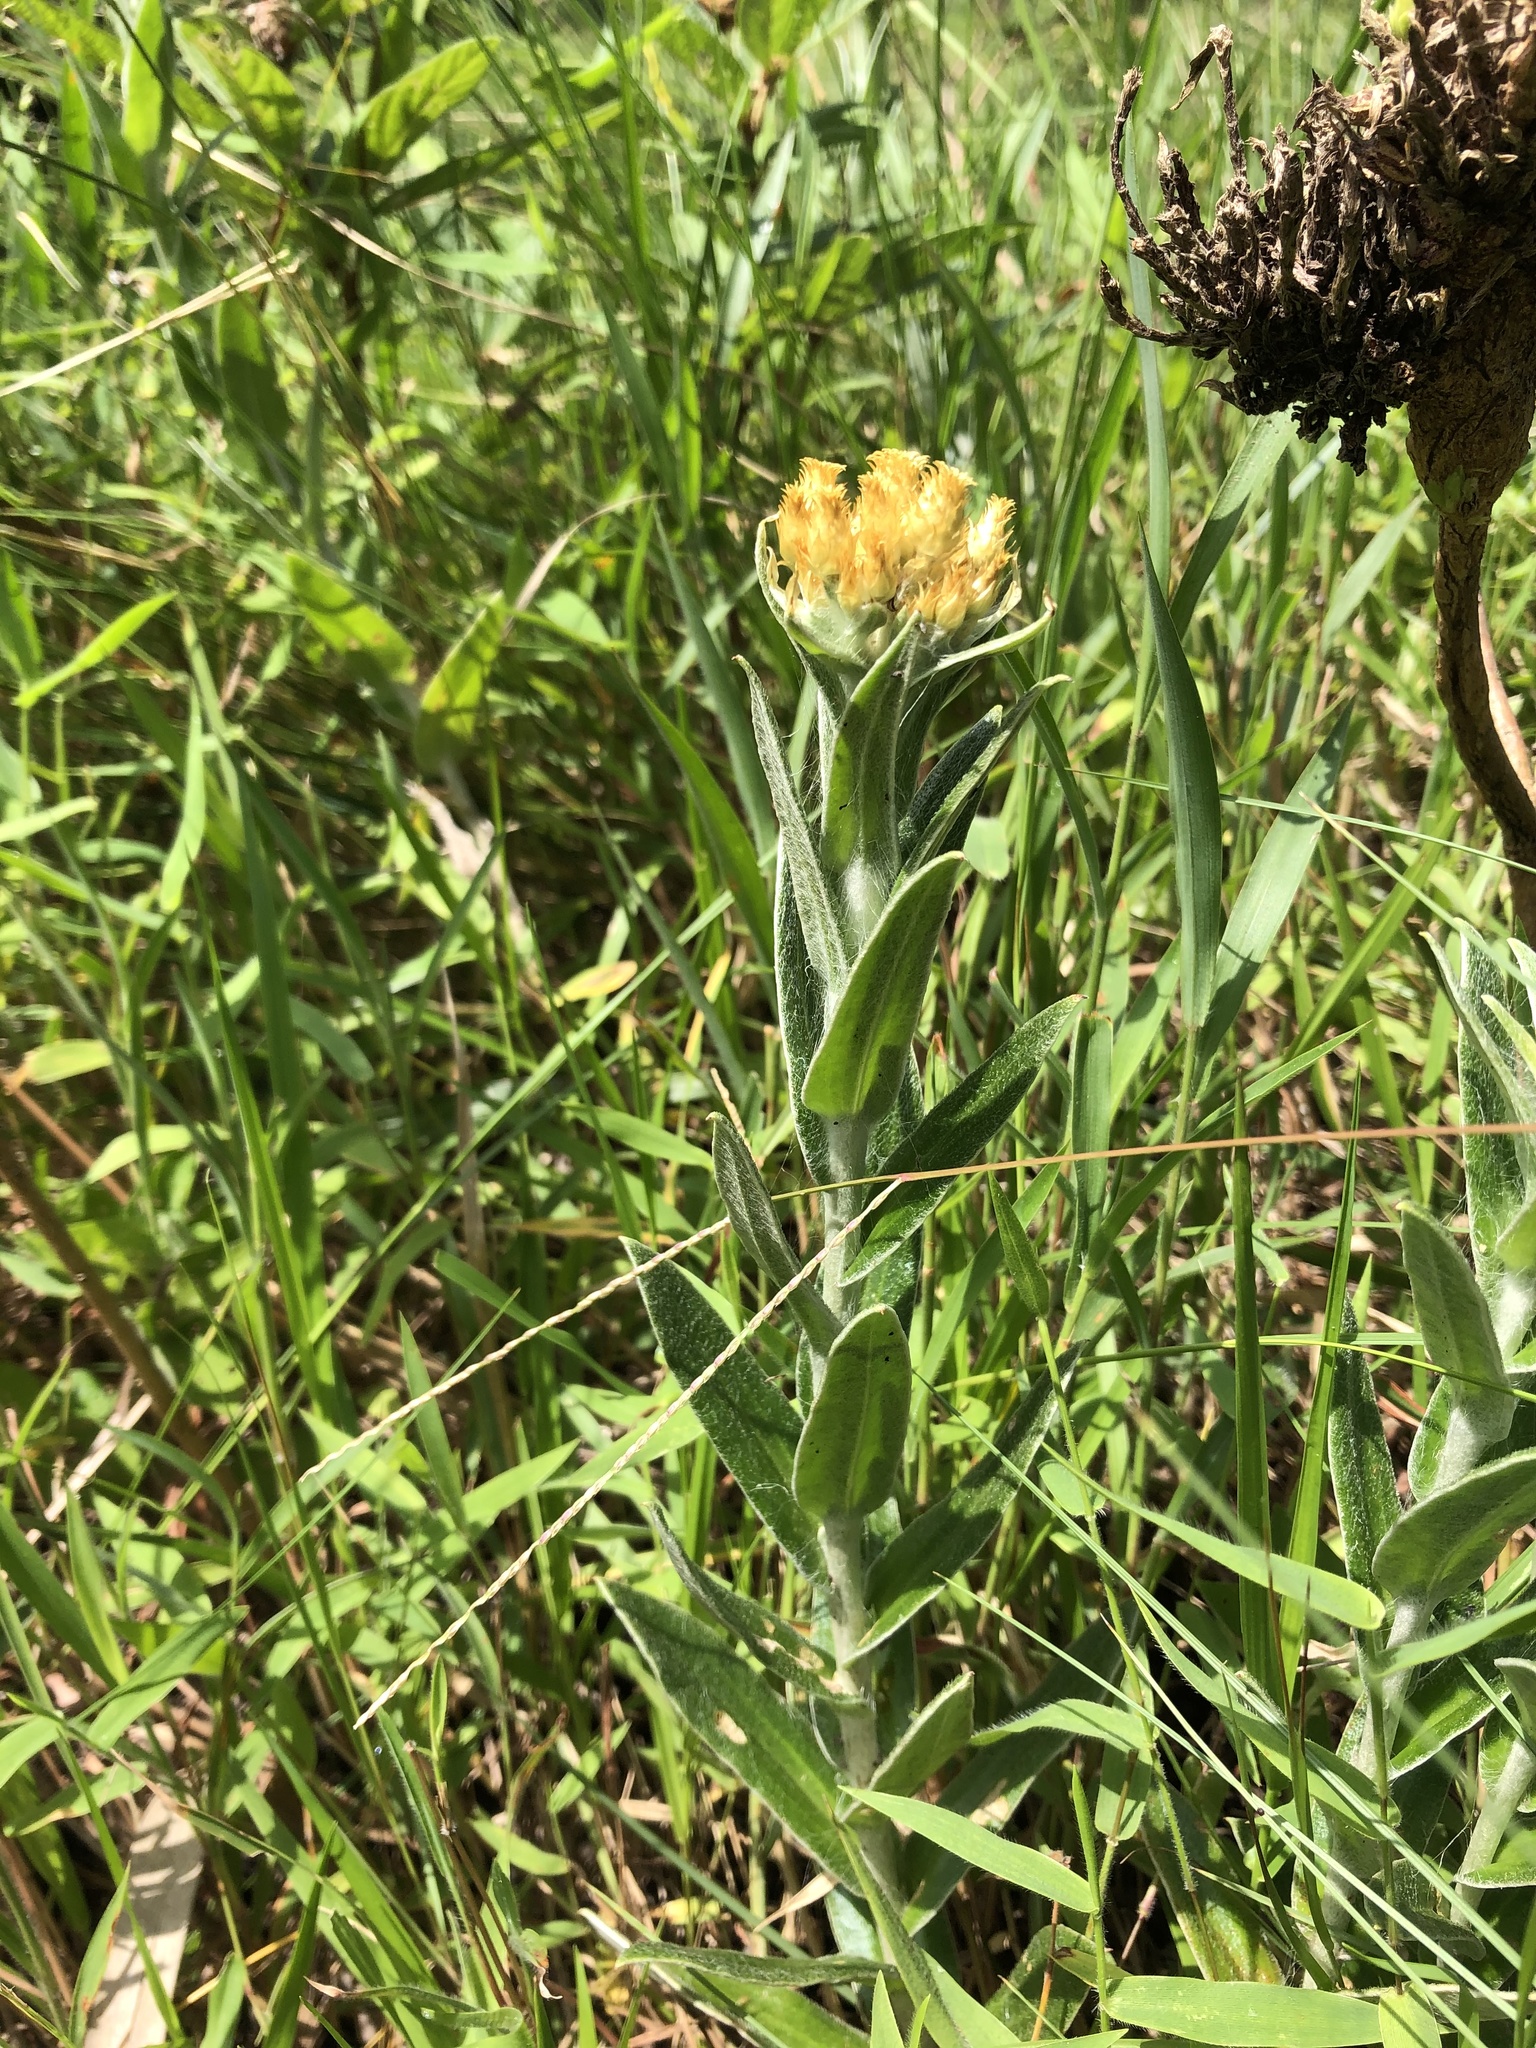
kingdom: Plantae
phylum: Tracheophyta
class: Magnoliopsida
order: Asterales
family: Asteraceae
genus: Helichrysum
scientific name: Helichrysum cephaloideum
